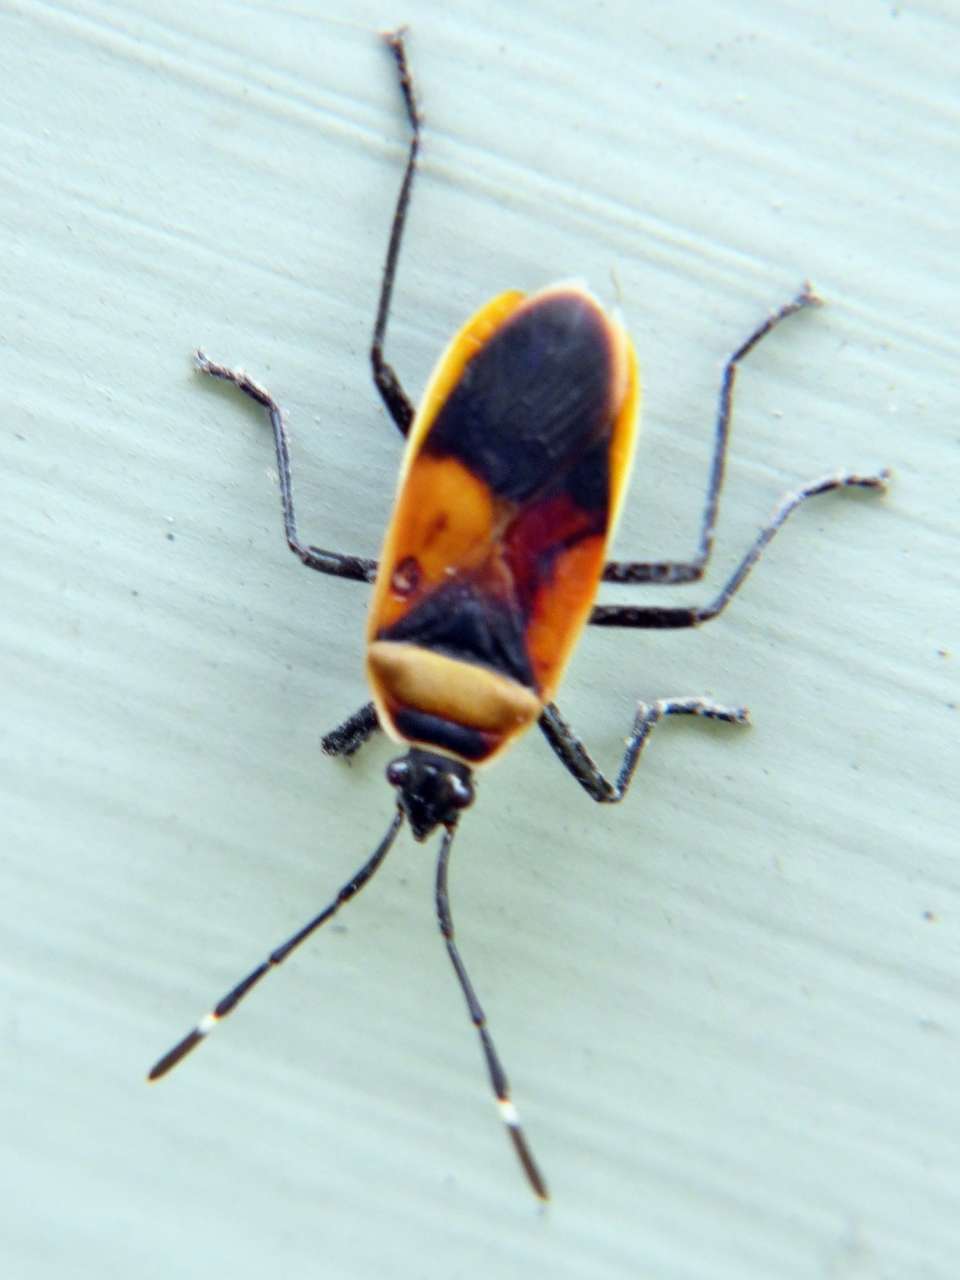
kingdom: Animalia
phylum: Arthropoda
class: Insecta
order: Hemiptera
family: Pyrrhocoridae
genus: Dindymus
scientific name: Dindymus
